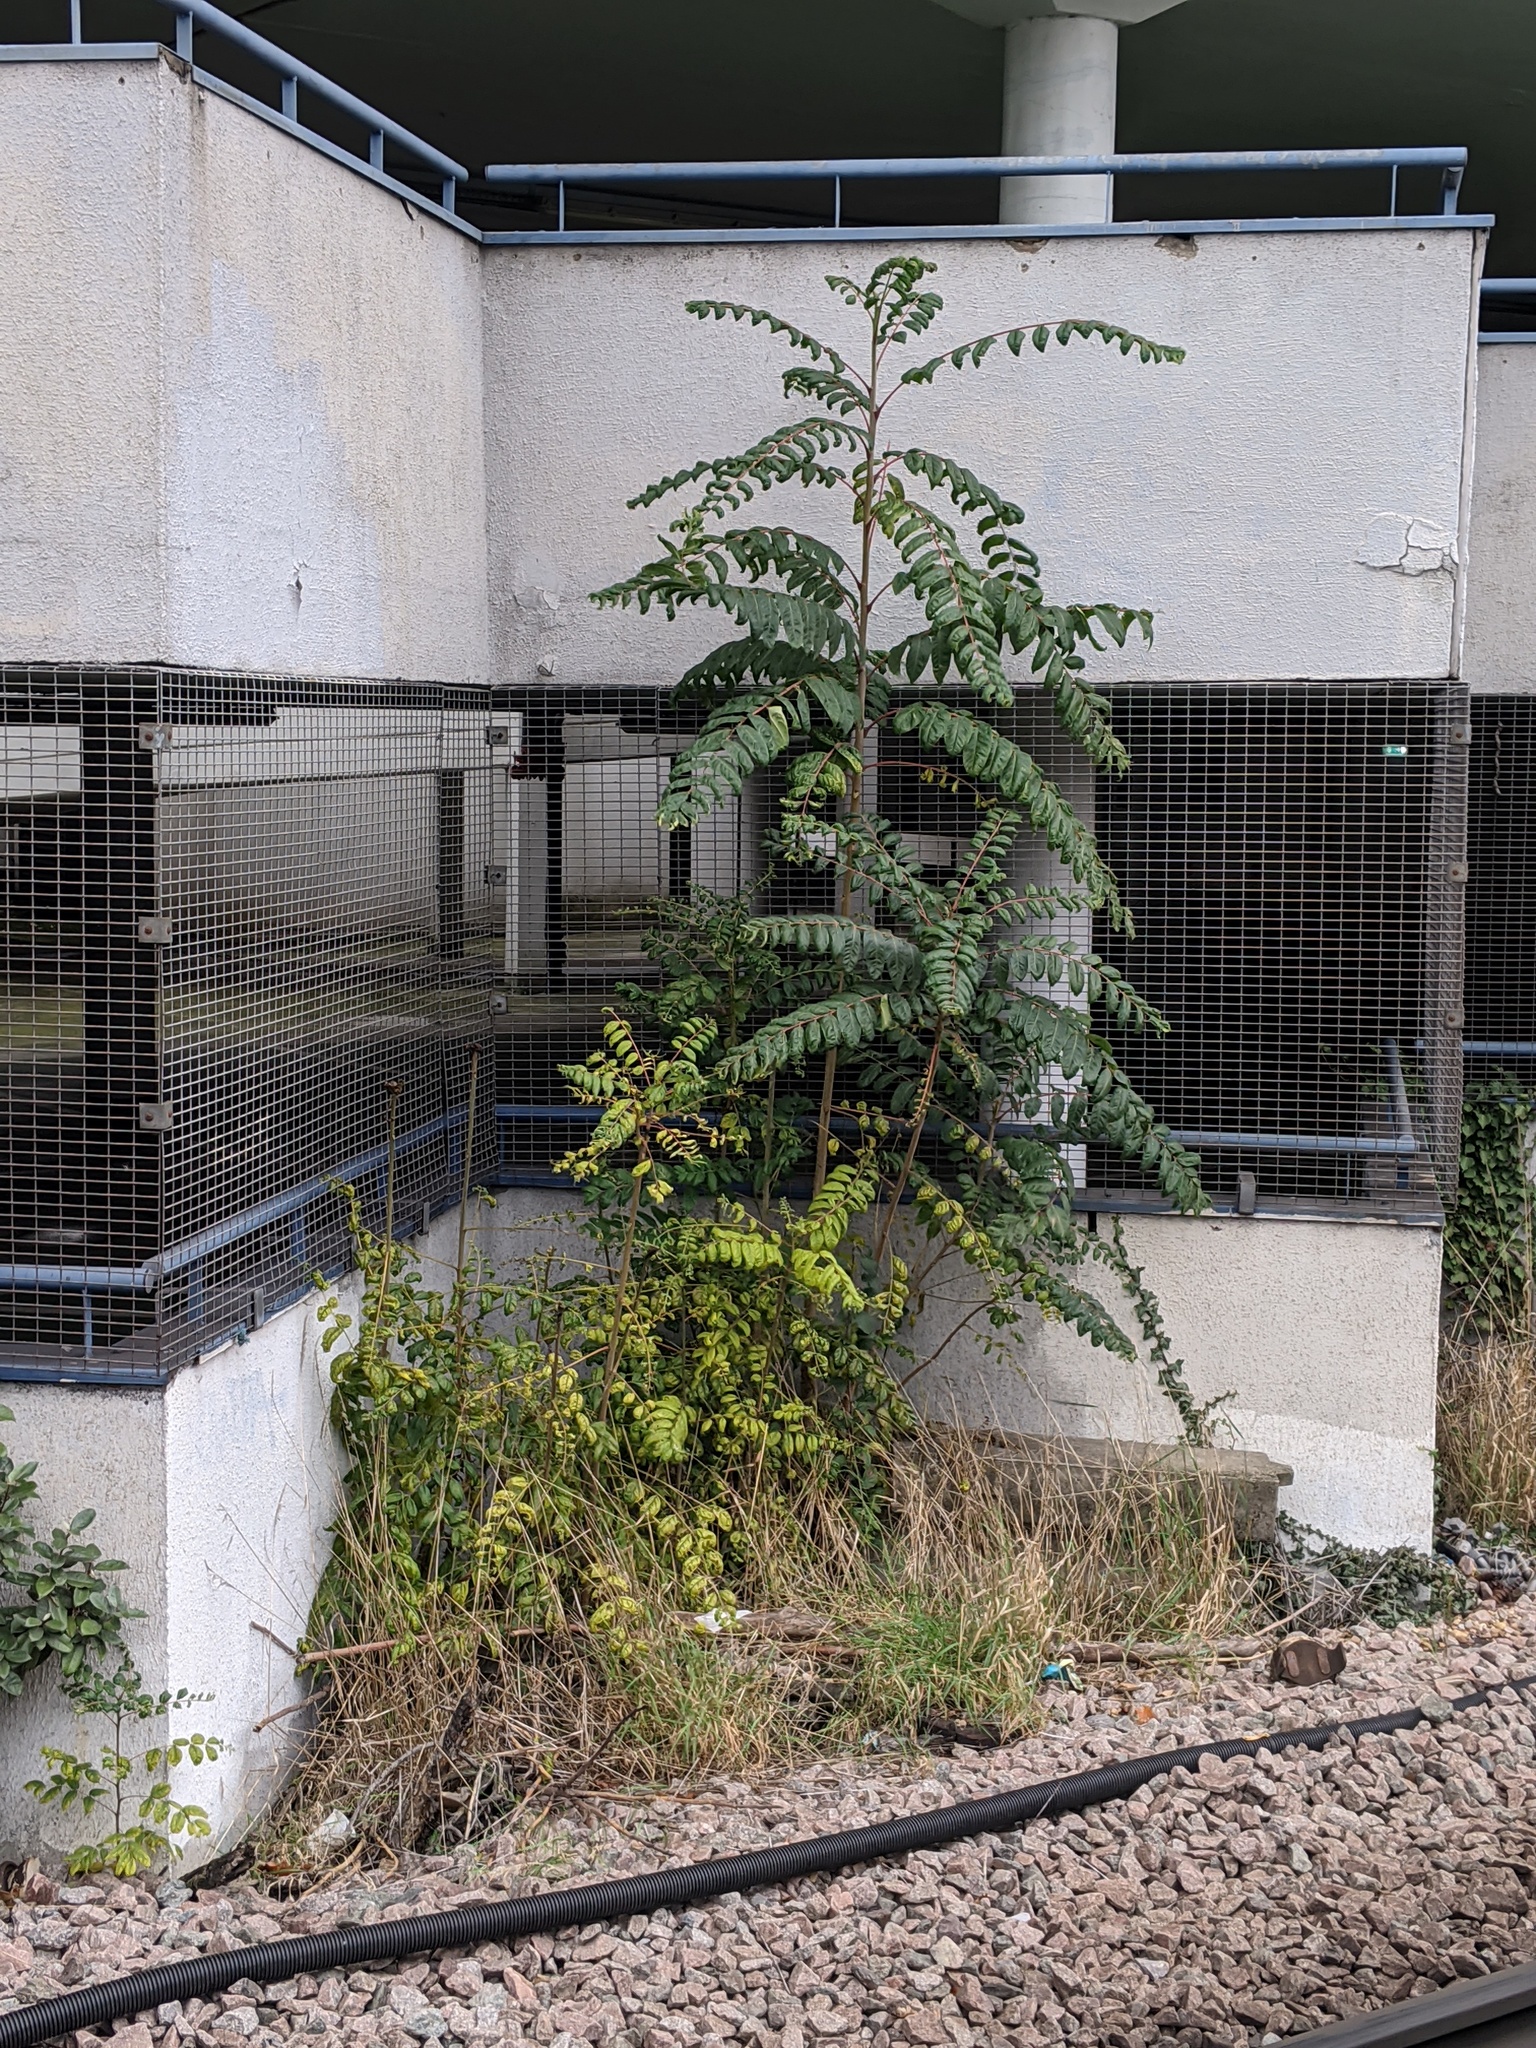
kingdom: Plantae
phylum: Tracheophyta
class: Magnoliopsida
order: Sapindales
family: Simaroubaceae
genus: Ailanthus
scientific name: Ailanthus altissima
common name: Tree-of-heaven
